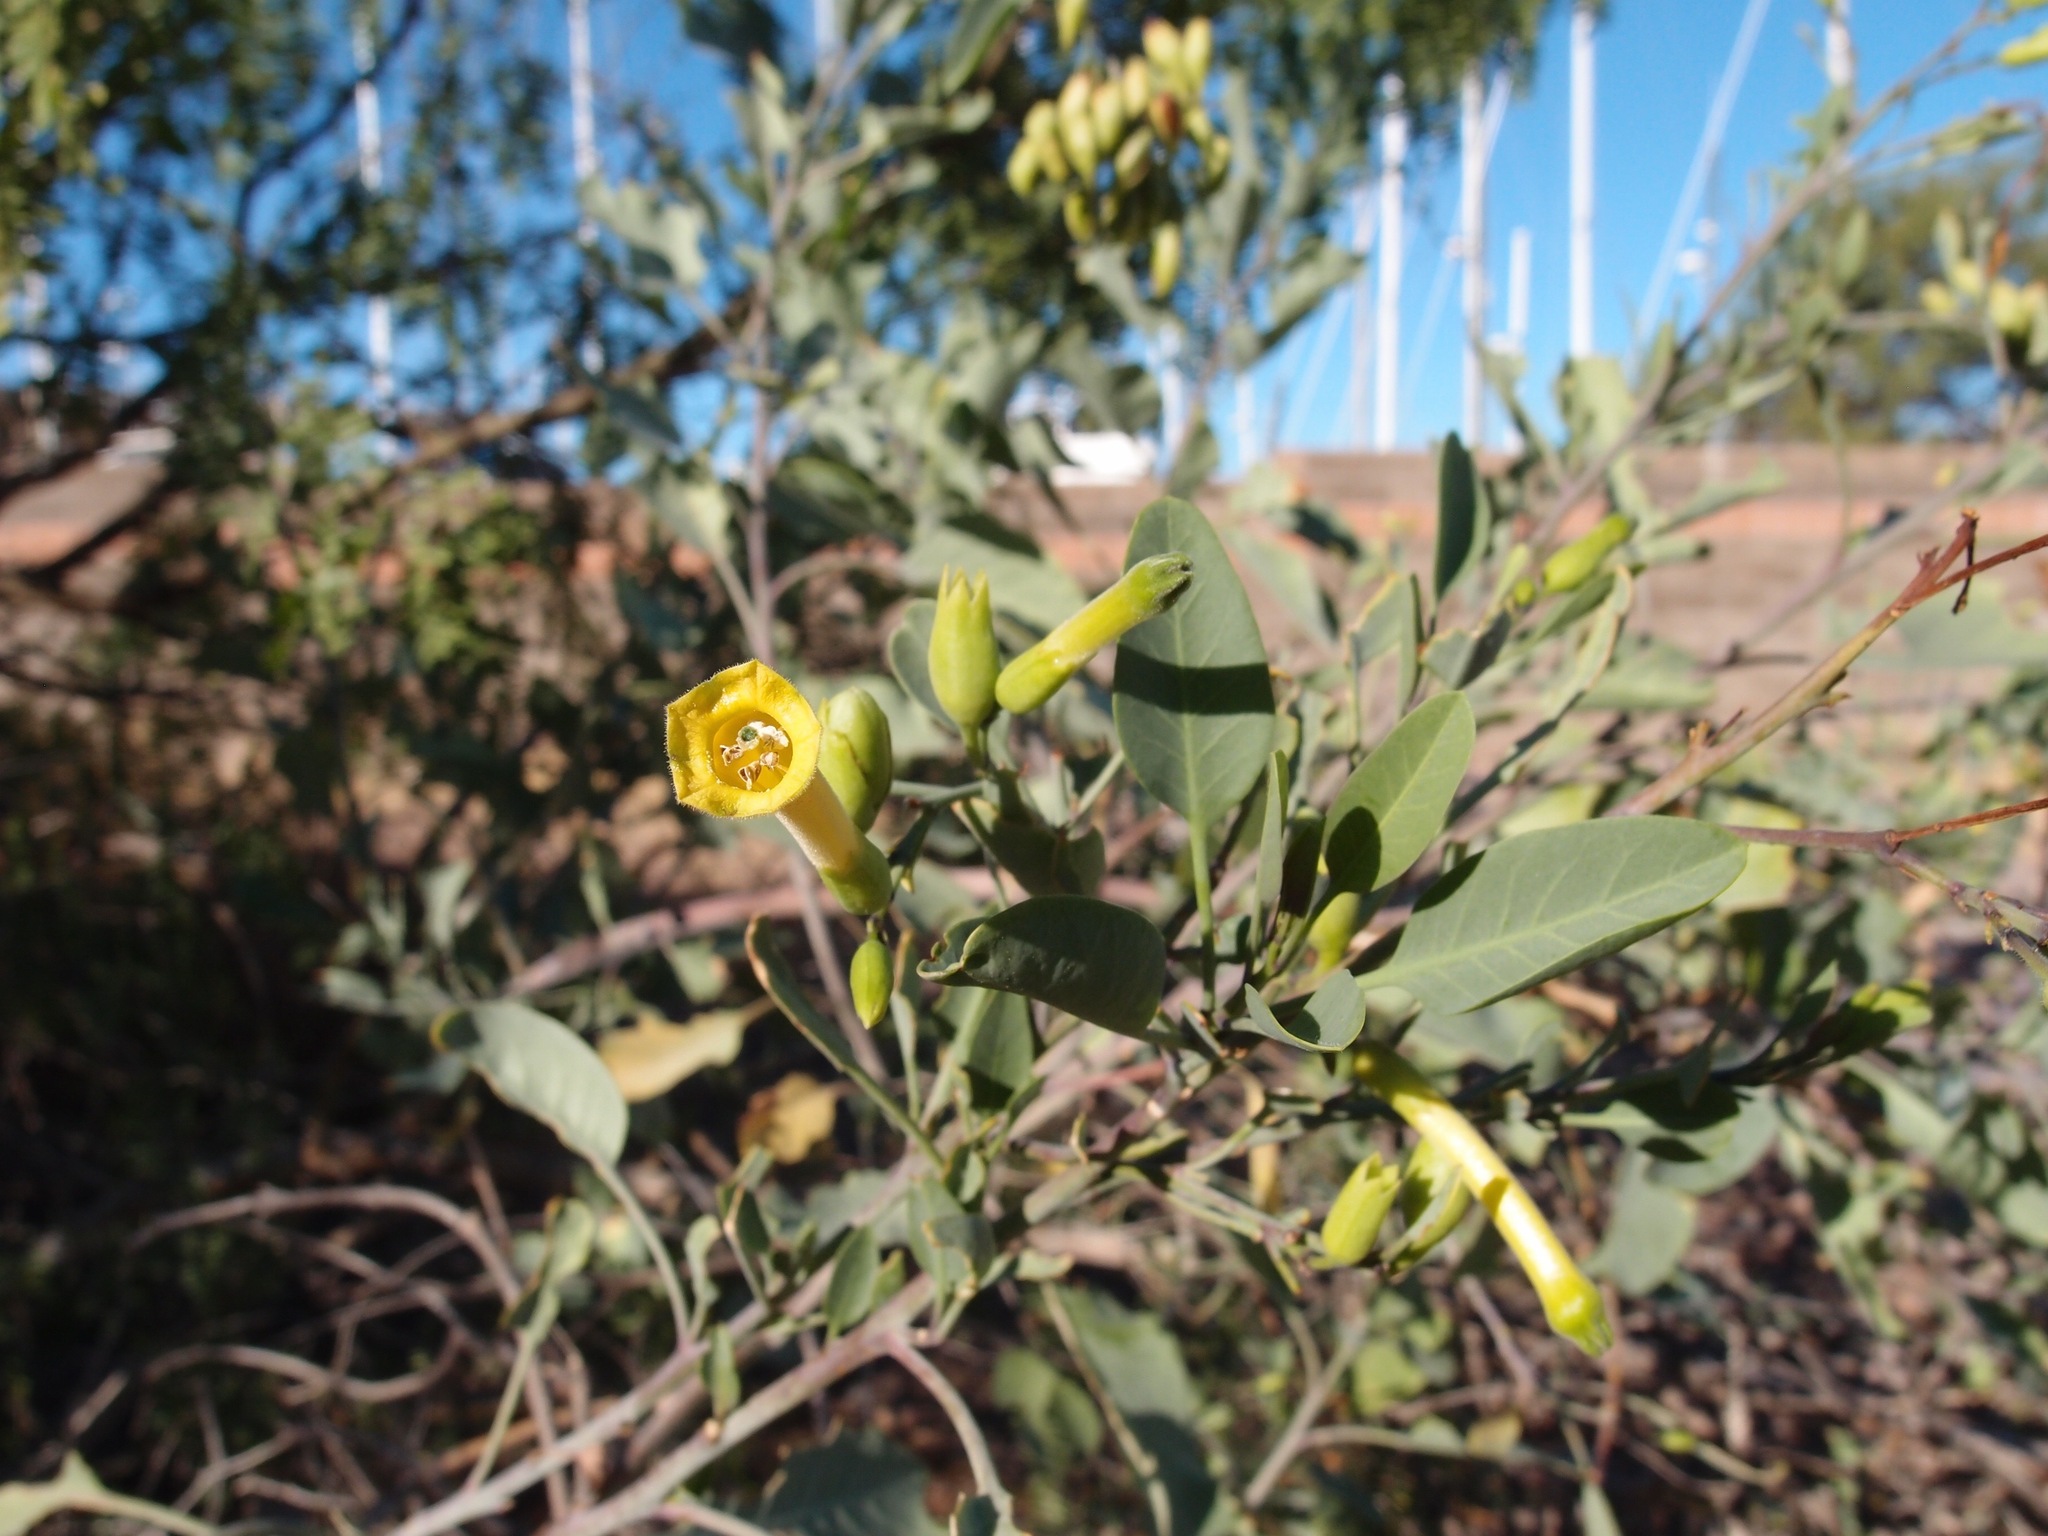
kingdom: Plantae
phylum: Tracheophyta
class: Magnoliopsida
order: Solanales
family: Solanaceae
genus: Nicotiana
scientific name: Nicotiana glauca
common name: Tree tobacco
